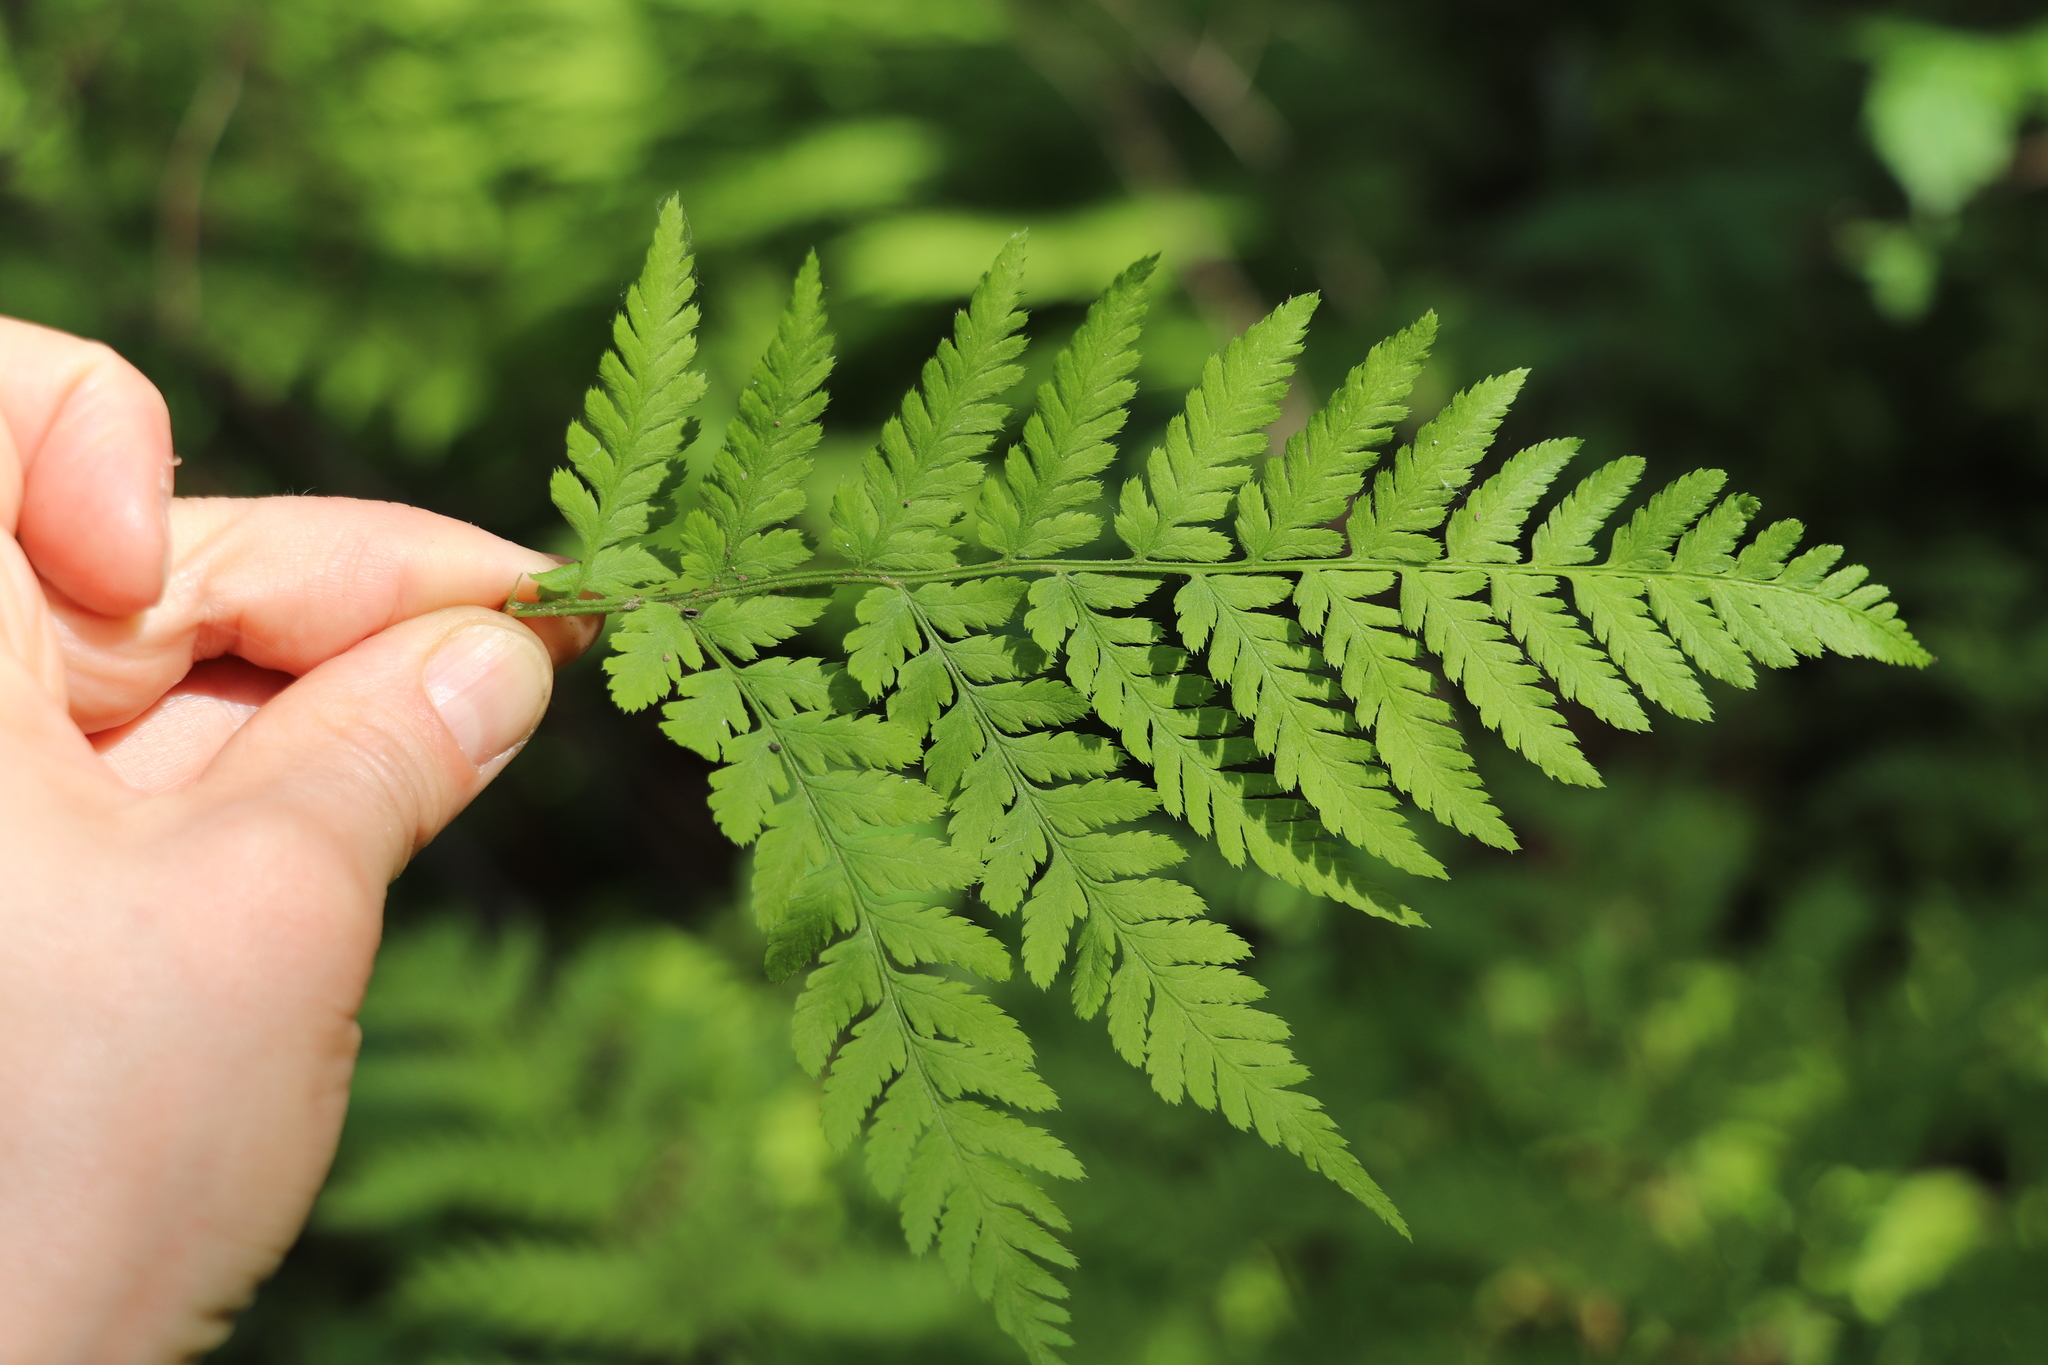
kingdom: Plantae
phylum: Tracheophyta
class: Polypodiopsida
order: Polypodiales
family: Dryopteridaceae
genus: Dryopteris
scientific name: Dryopteris expansa
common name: Northern buckler fern
